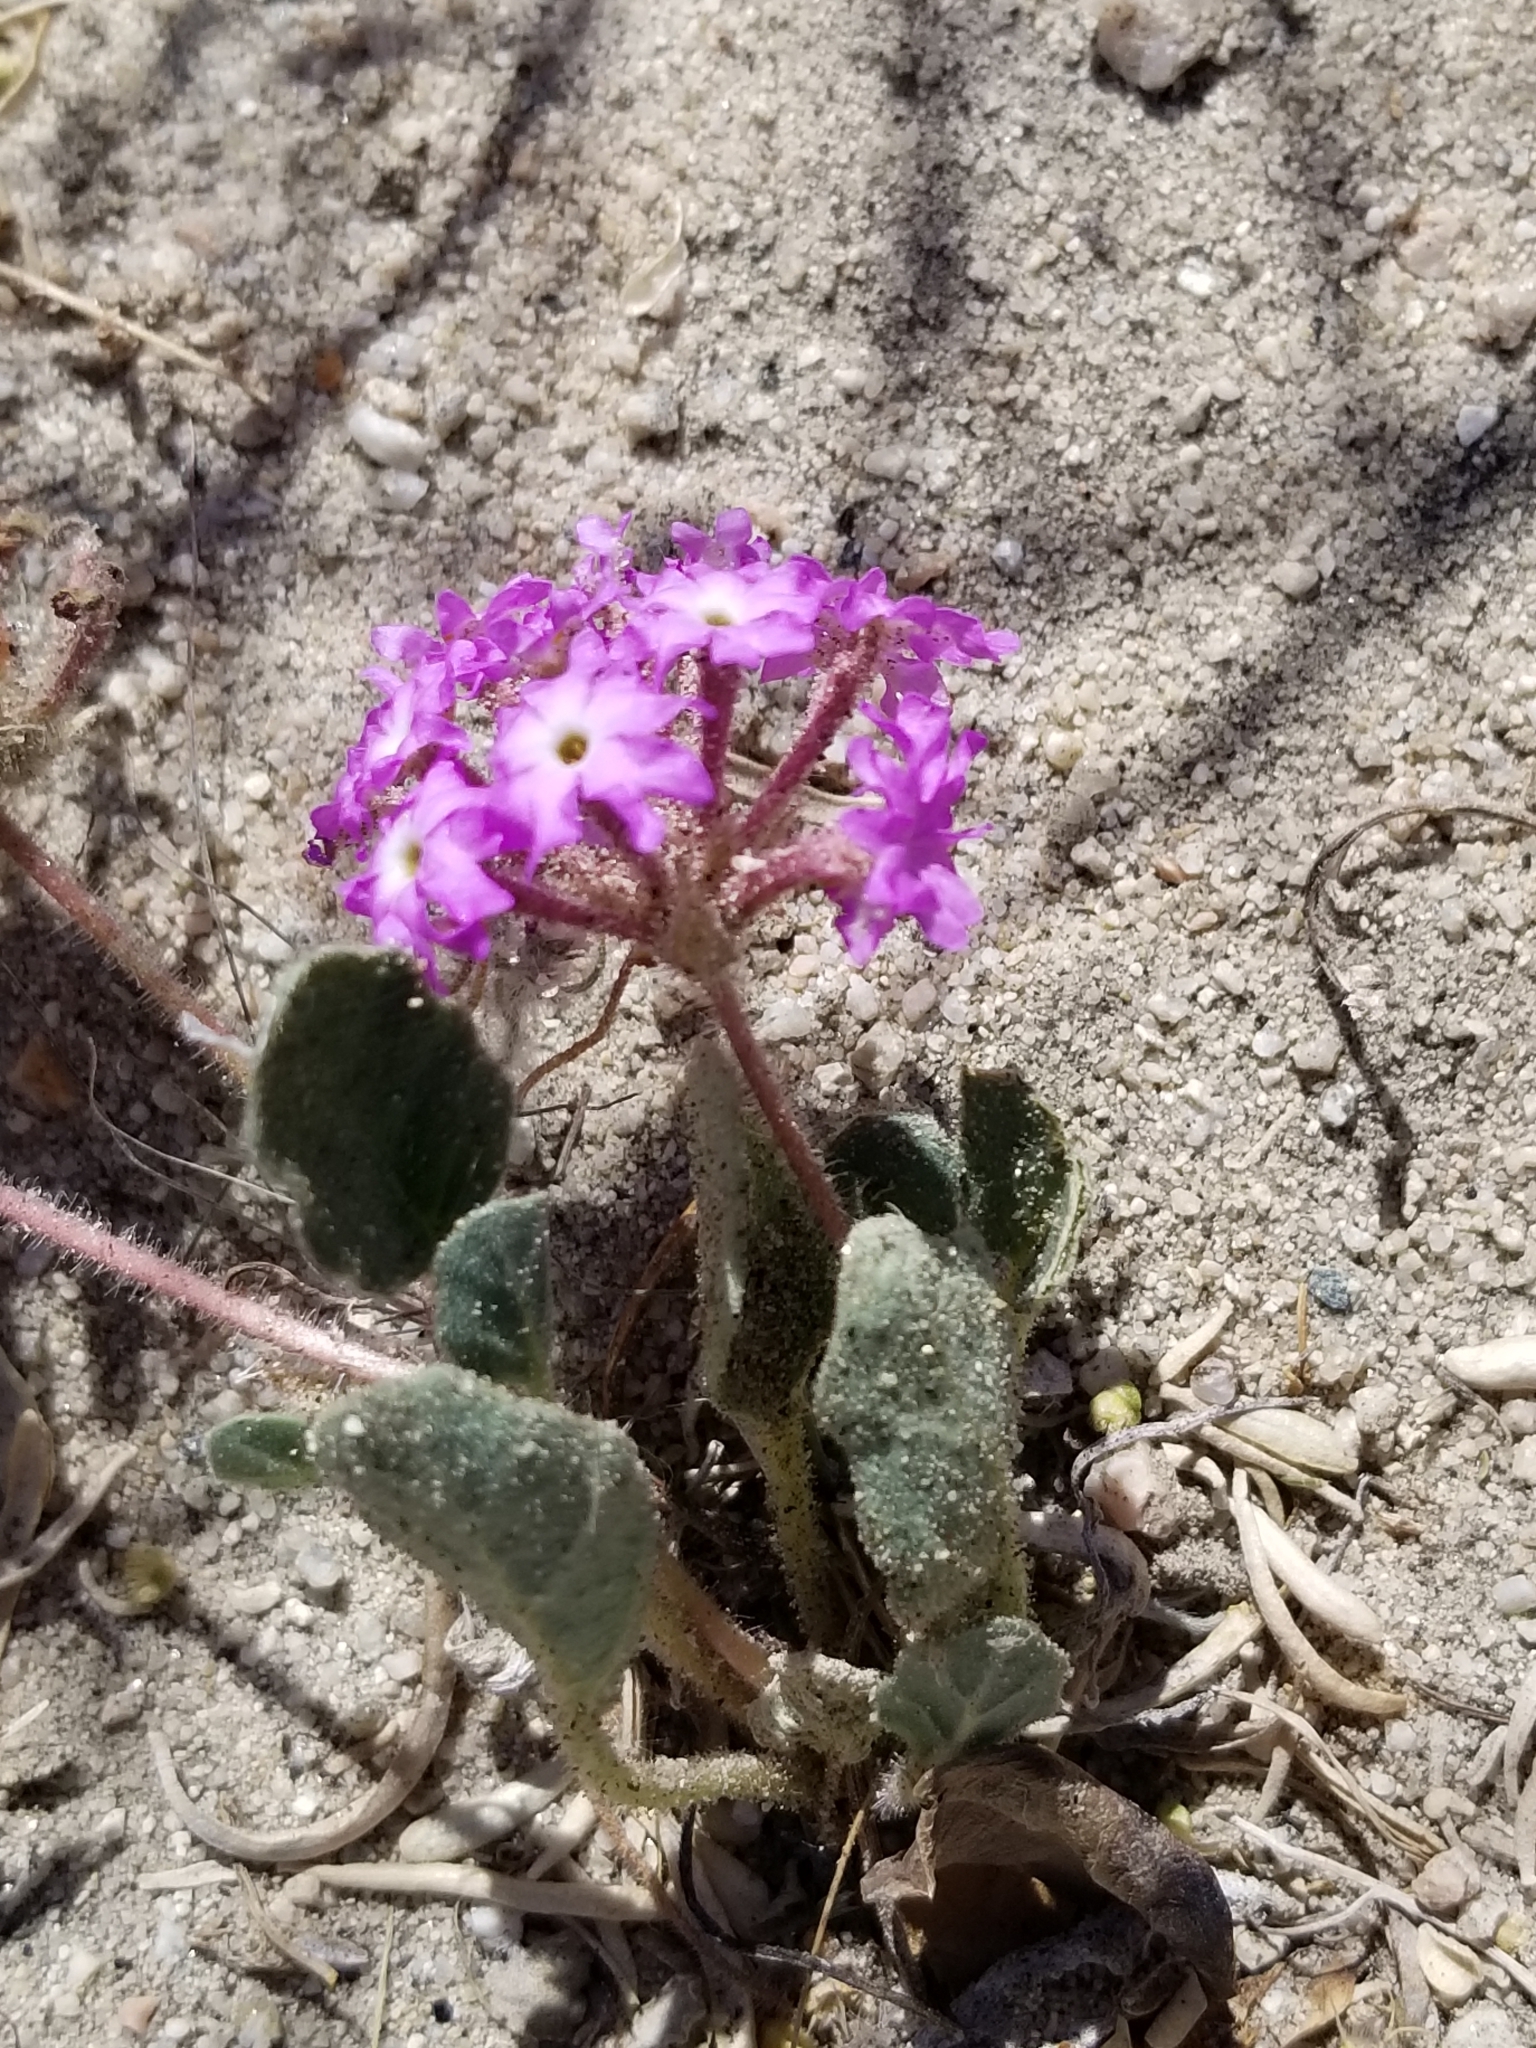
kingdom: Plantae
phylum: Tracheophyta
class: Magnoliopsida
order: Caryophyllales
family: Nyctaginaceae
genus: Abronia
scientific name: Abronia villosa
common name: Desert sand-verbena
